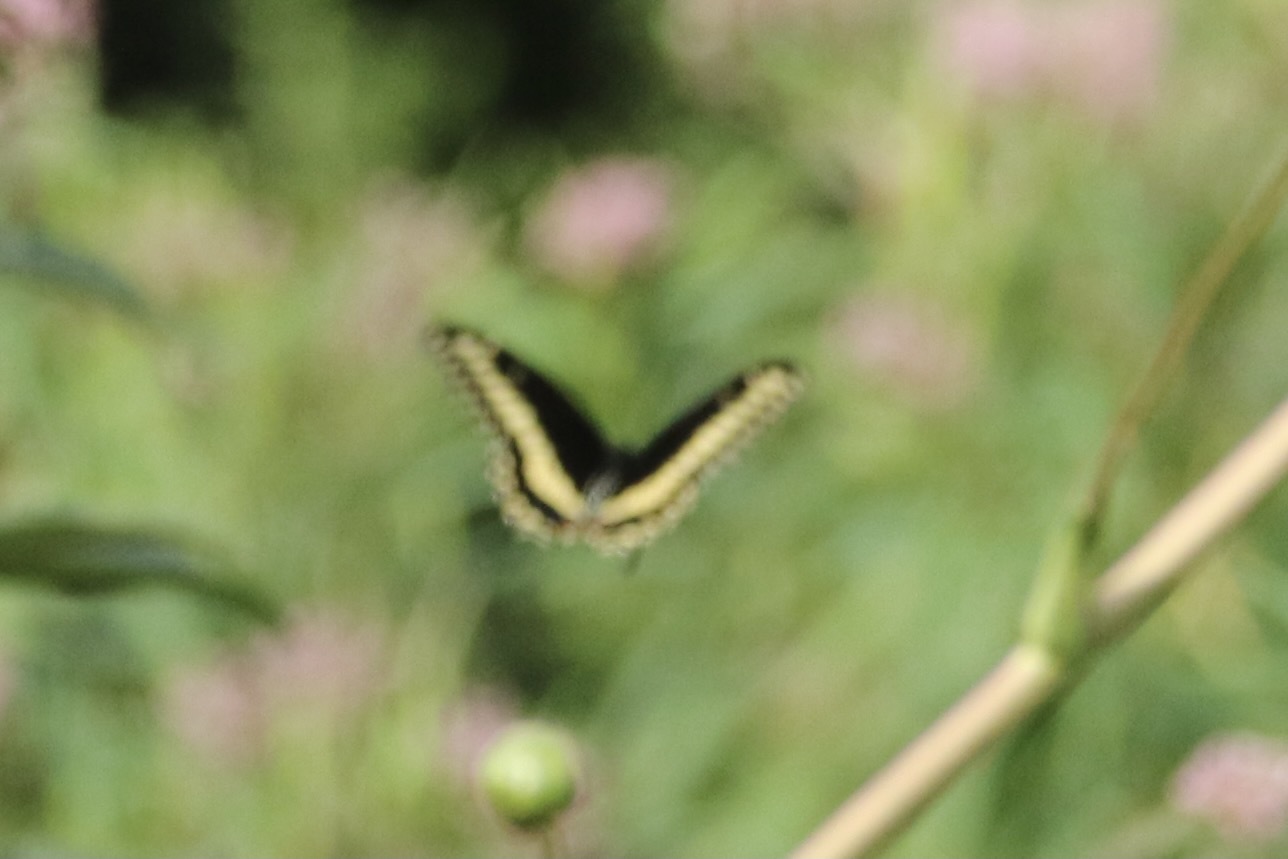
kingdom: Animalia
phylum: Arthropoda
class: Insecta
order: Lepidoptera
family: Papilionidae
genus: Papilio
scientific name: Papilio polyxenes
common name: Black swallowtail
